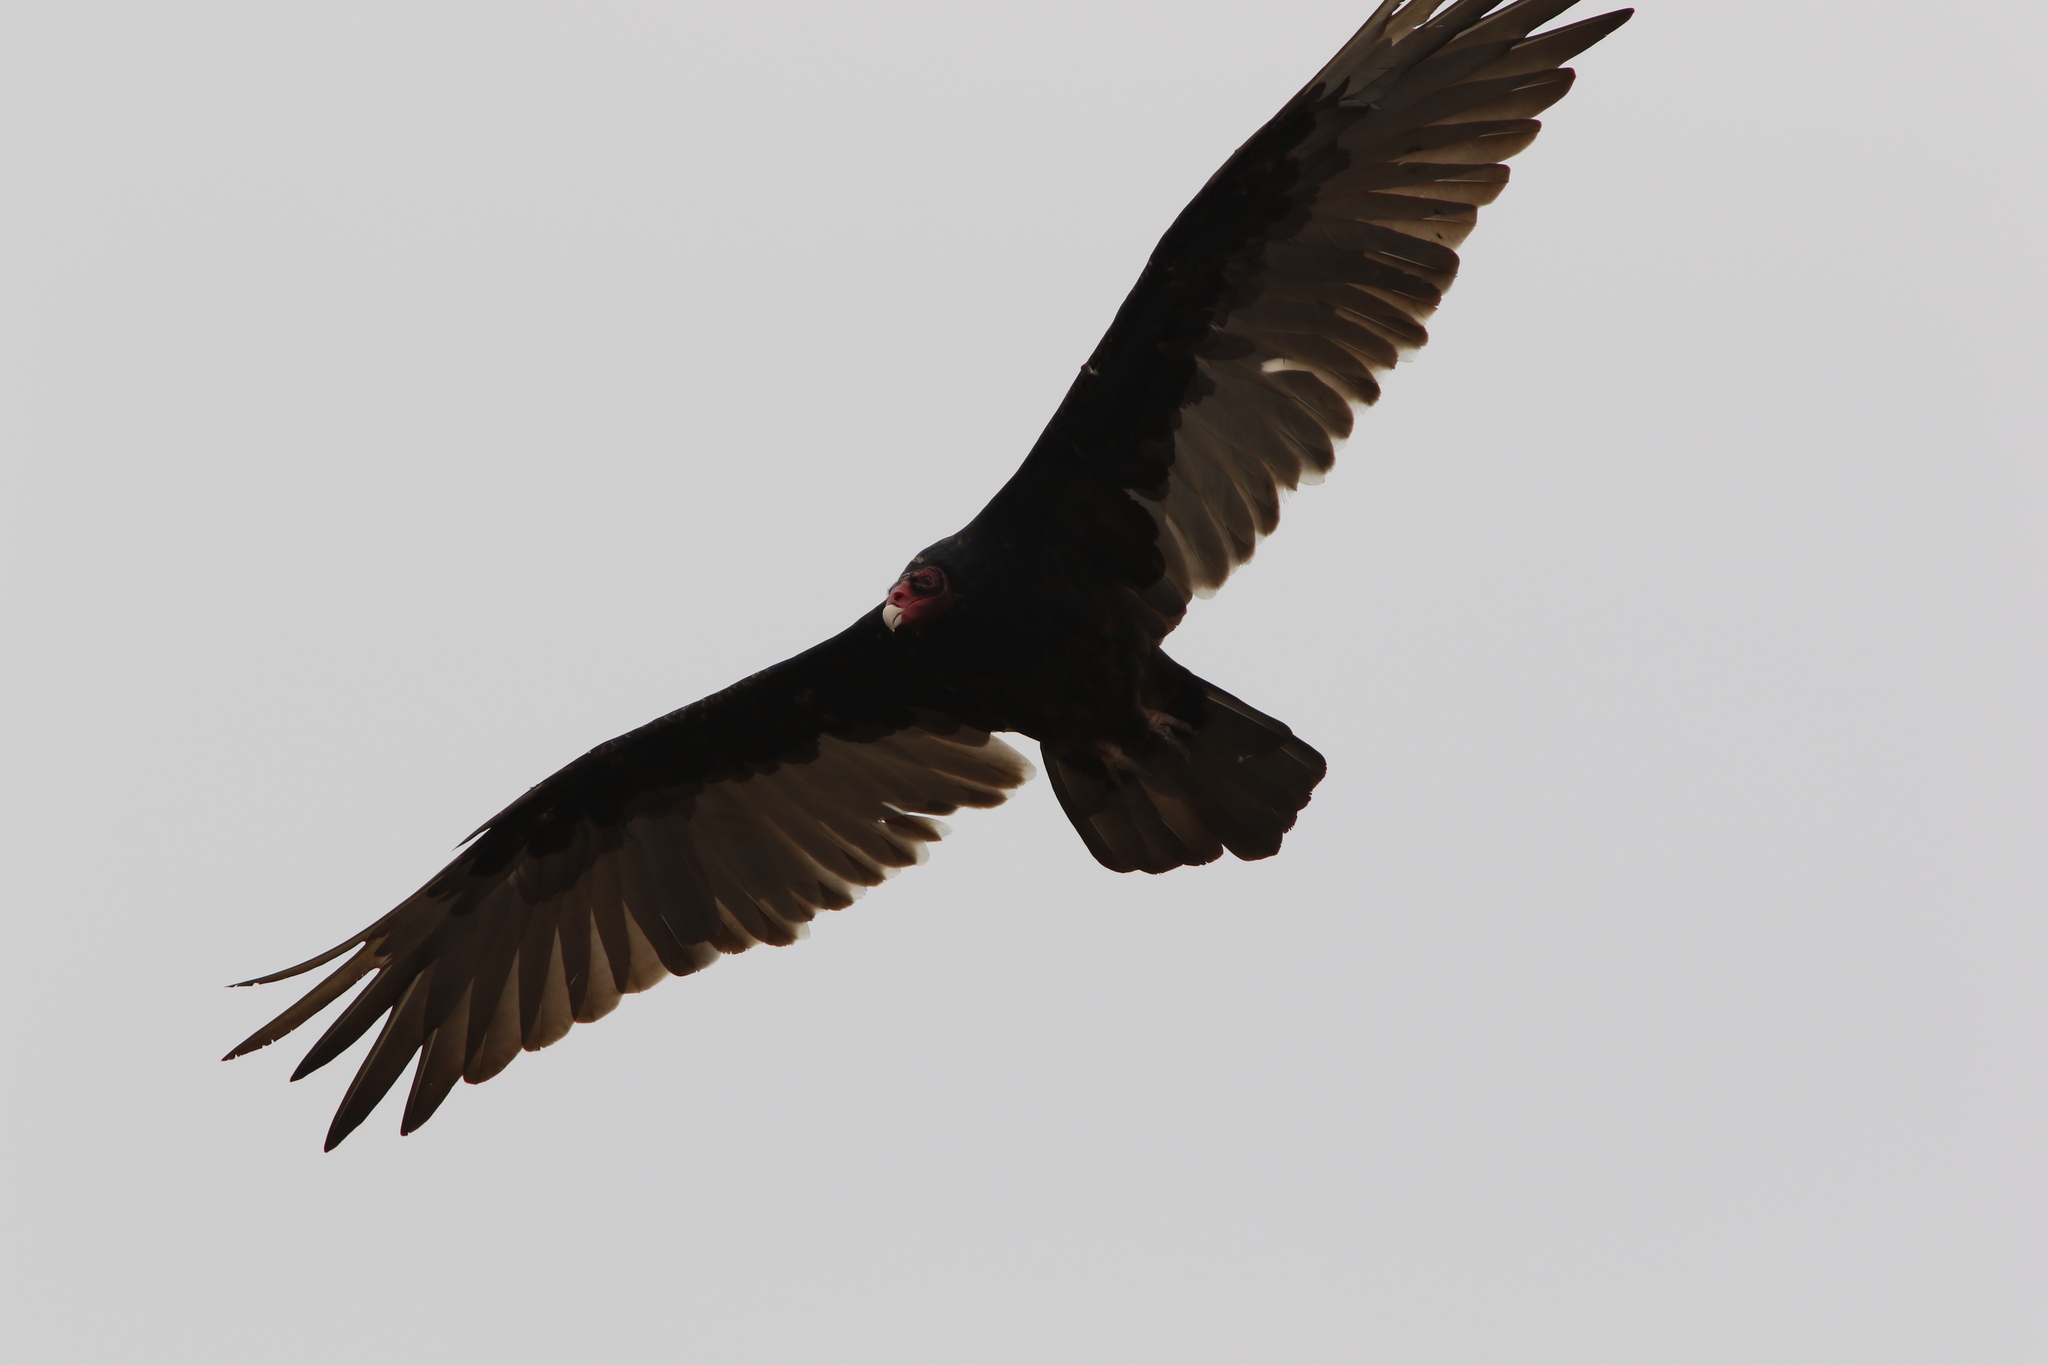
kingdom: Animalia
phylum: Chordata
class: Aves
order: Accipitriformes
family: Cathartidae
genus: Cathartes
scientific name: Cathartes aura
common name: Turkey vulture
